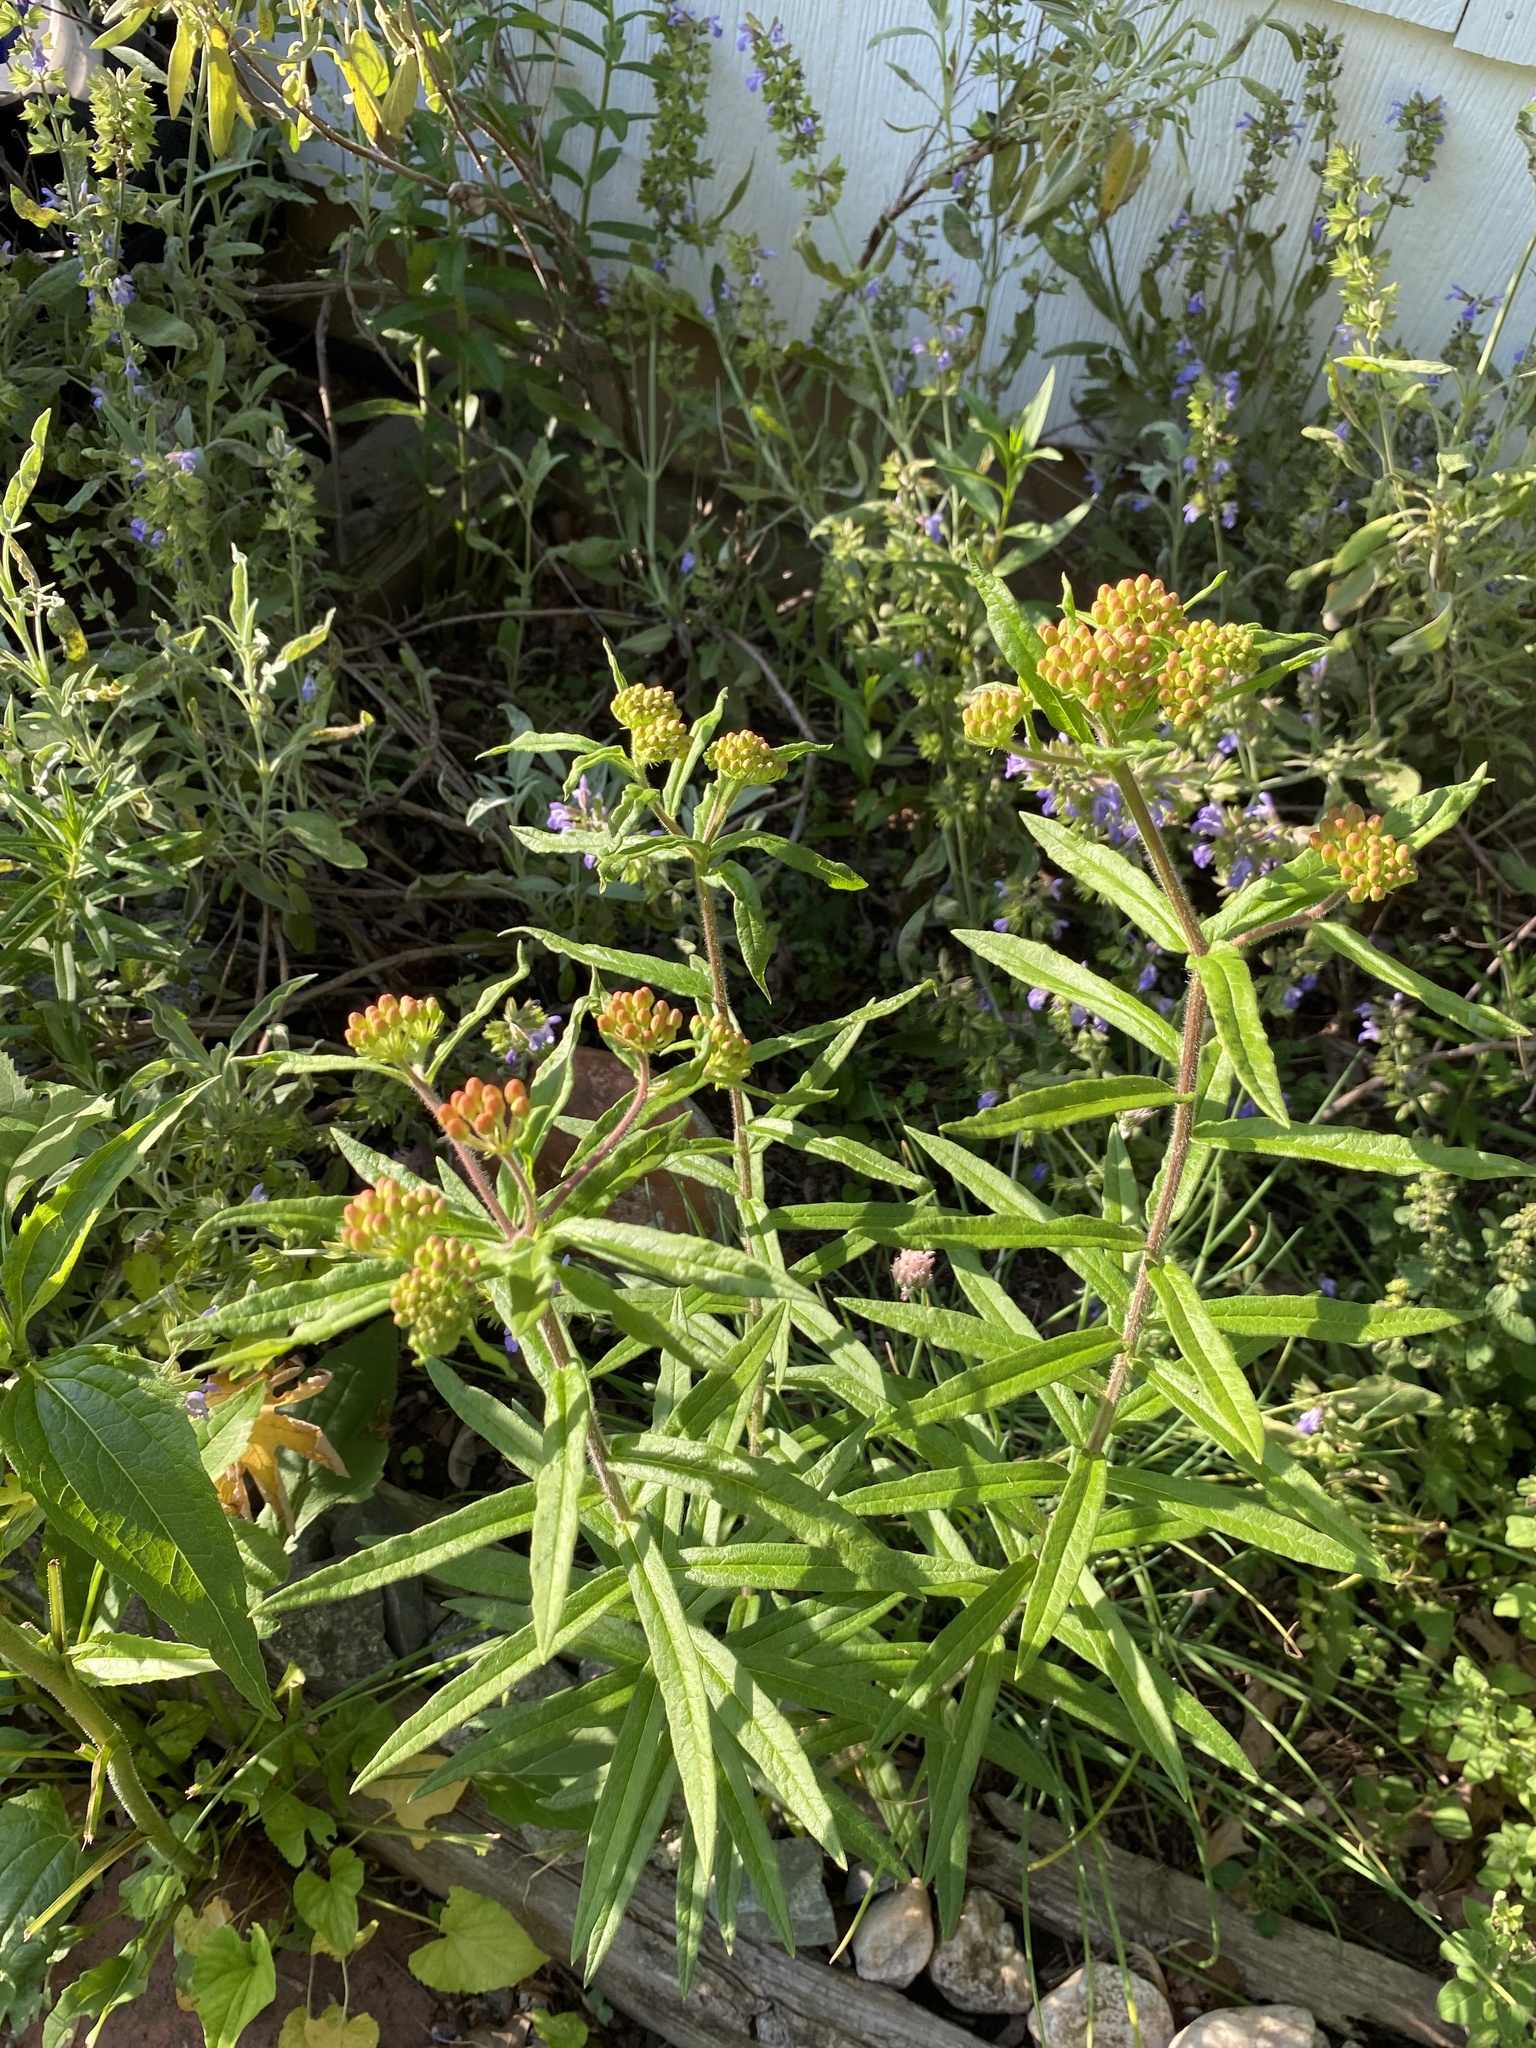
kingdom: Plantae
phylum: Tracheophyta
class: Magnoliopsida
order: Gentianales
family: Apocynaceae
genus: Asclepias
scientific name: Asclepias tuberosa
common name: Butterfly milkweed
